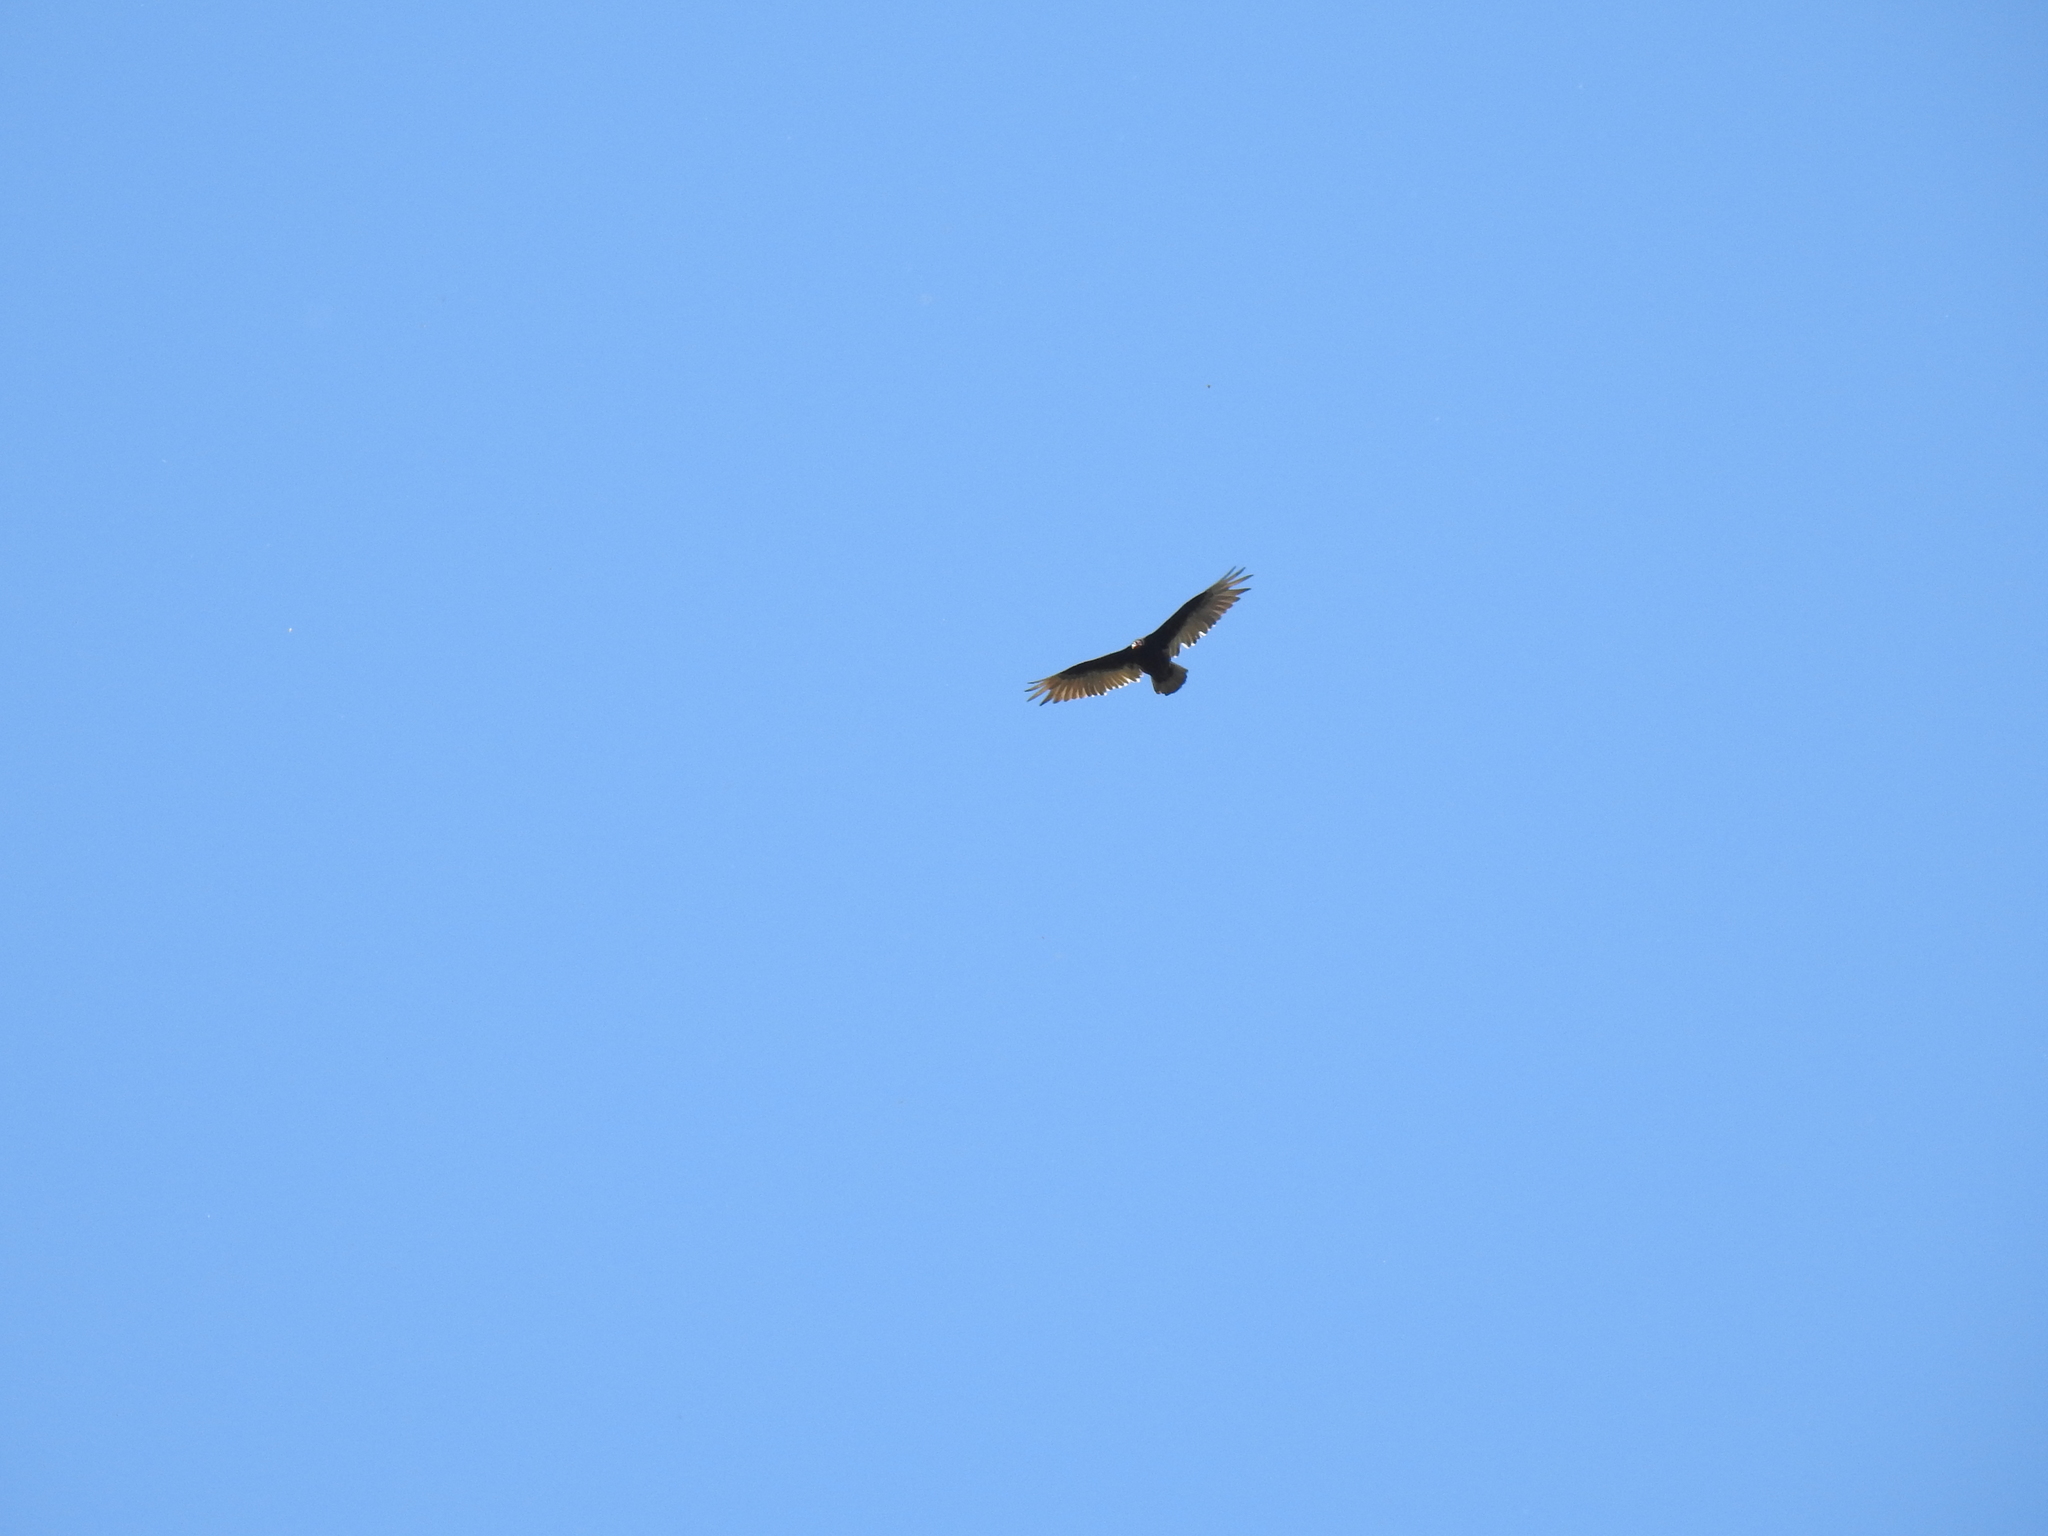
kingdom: Animalia
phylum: Chordata
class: Aves
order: Accipitriformes
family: Cathartidae
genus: Cathartes
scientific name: Cathartes aura
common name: Turkey vulture
